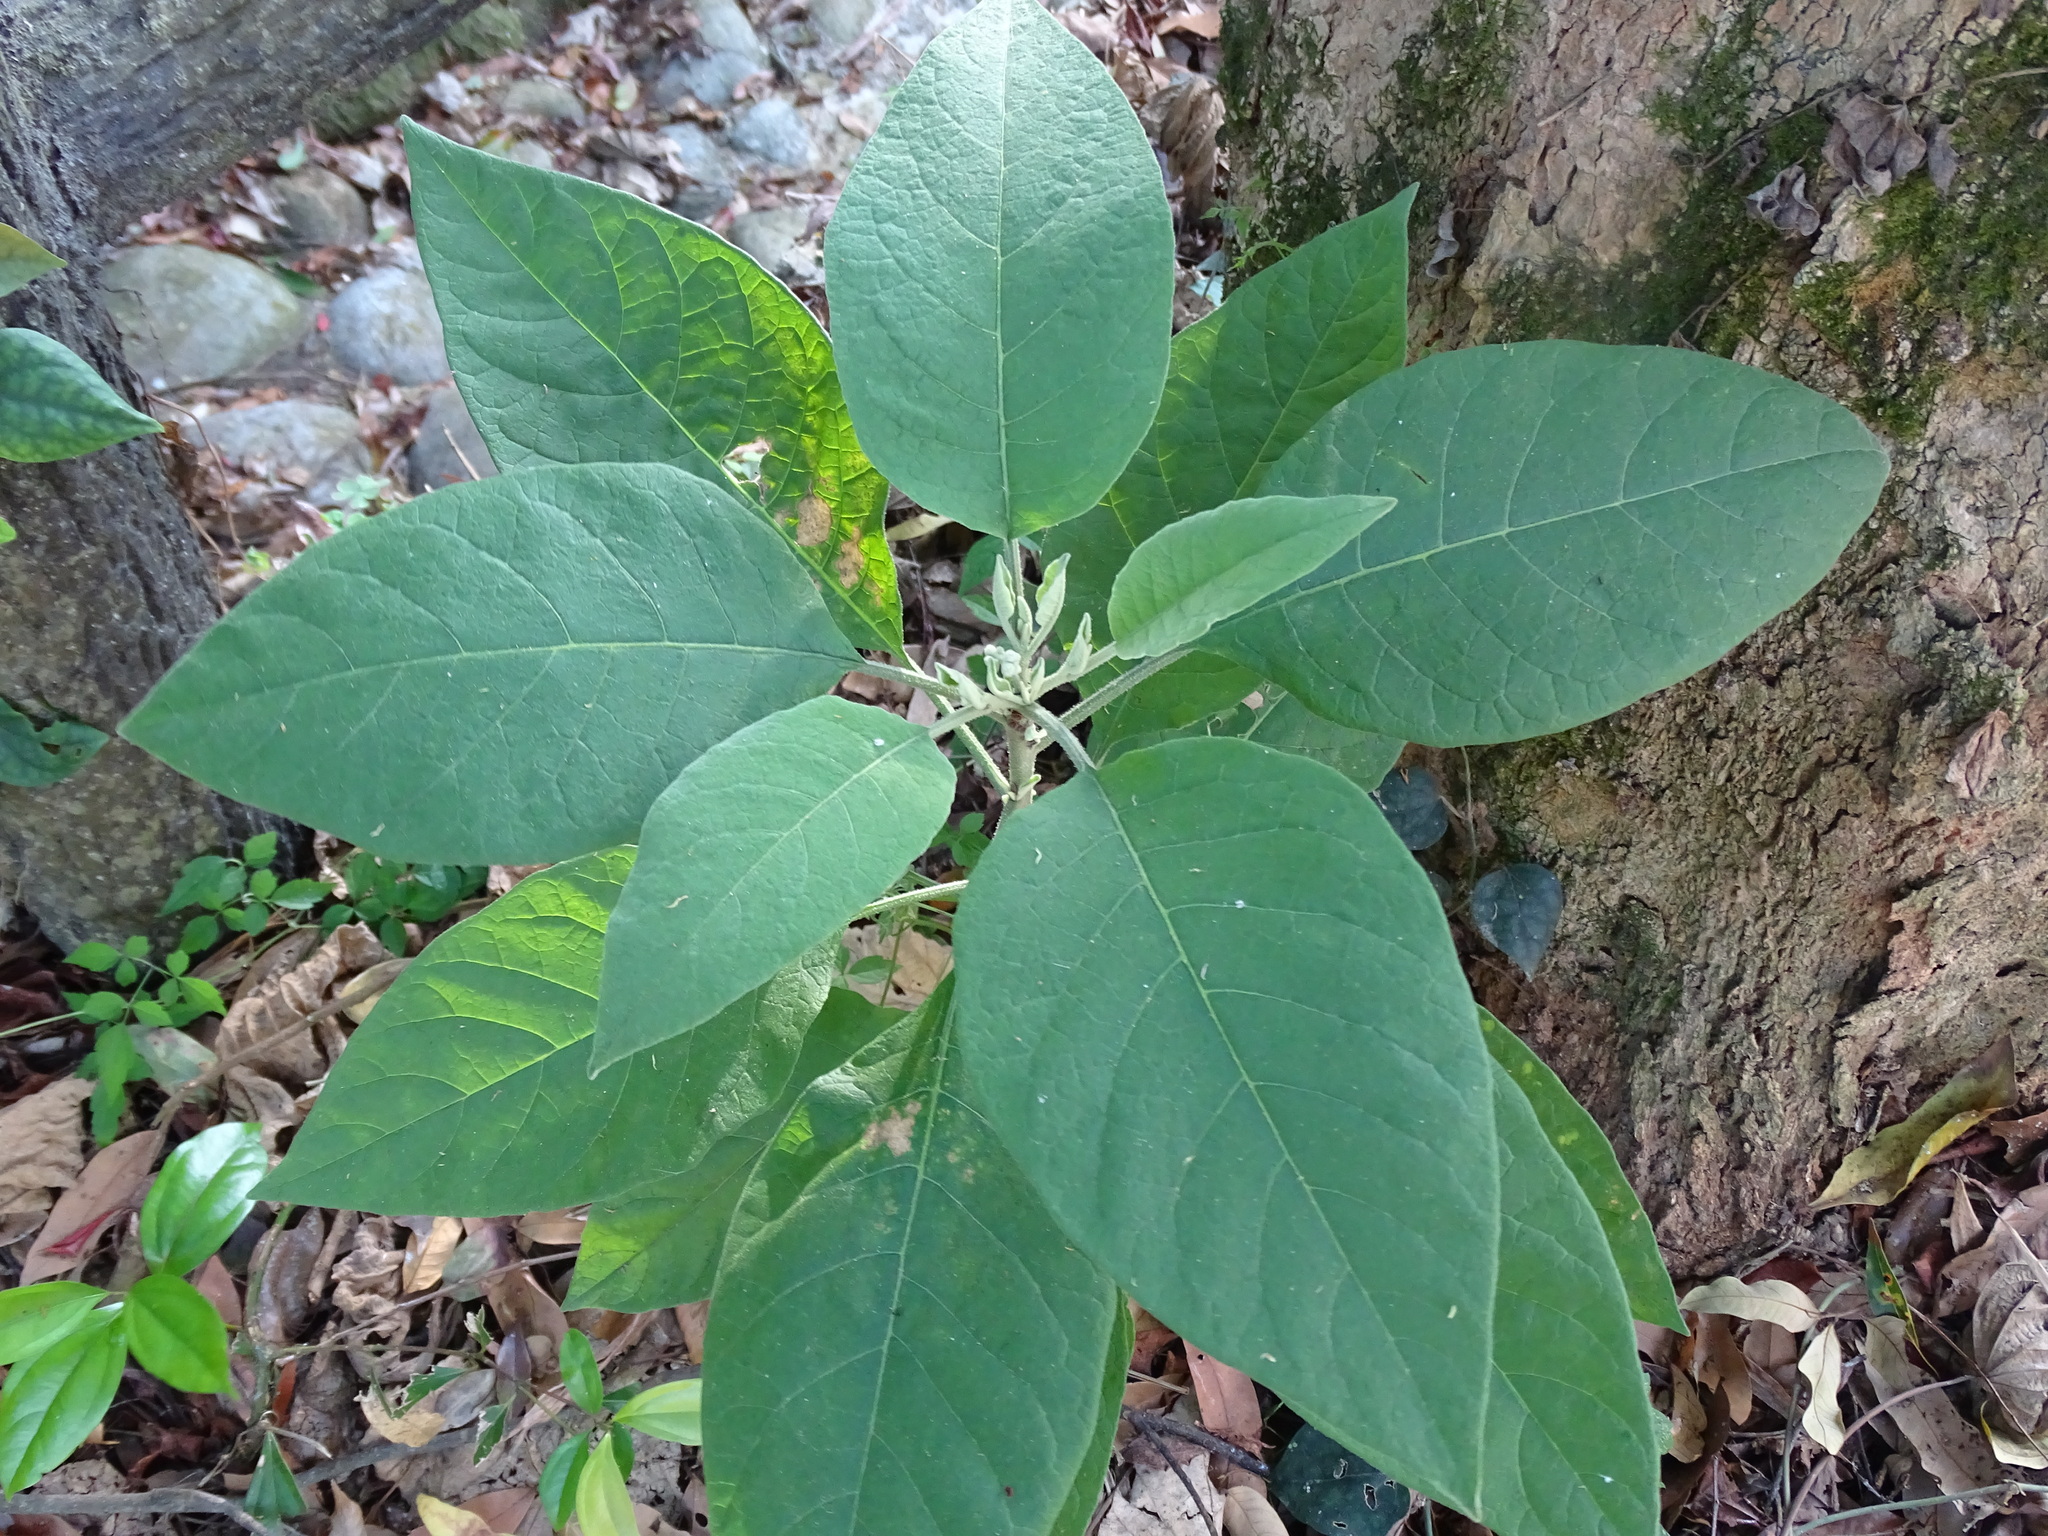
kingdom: Plantae
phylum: Tracheophyta
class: Magnoliopsida
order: Solanales
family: Solanaceae
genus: Solanum
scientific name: Solanum erianthum
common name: Tobacco-tree
